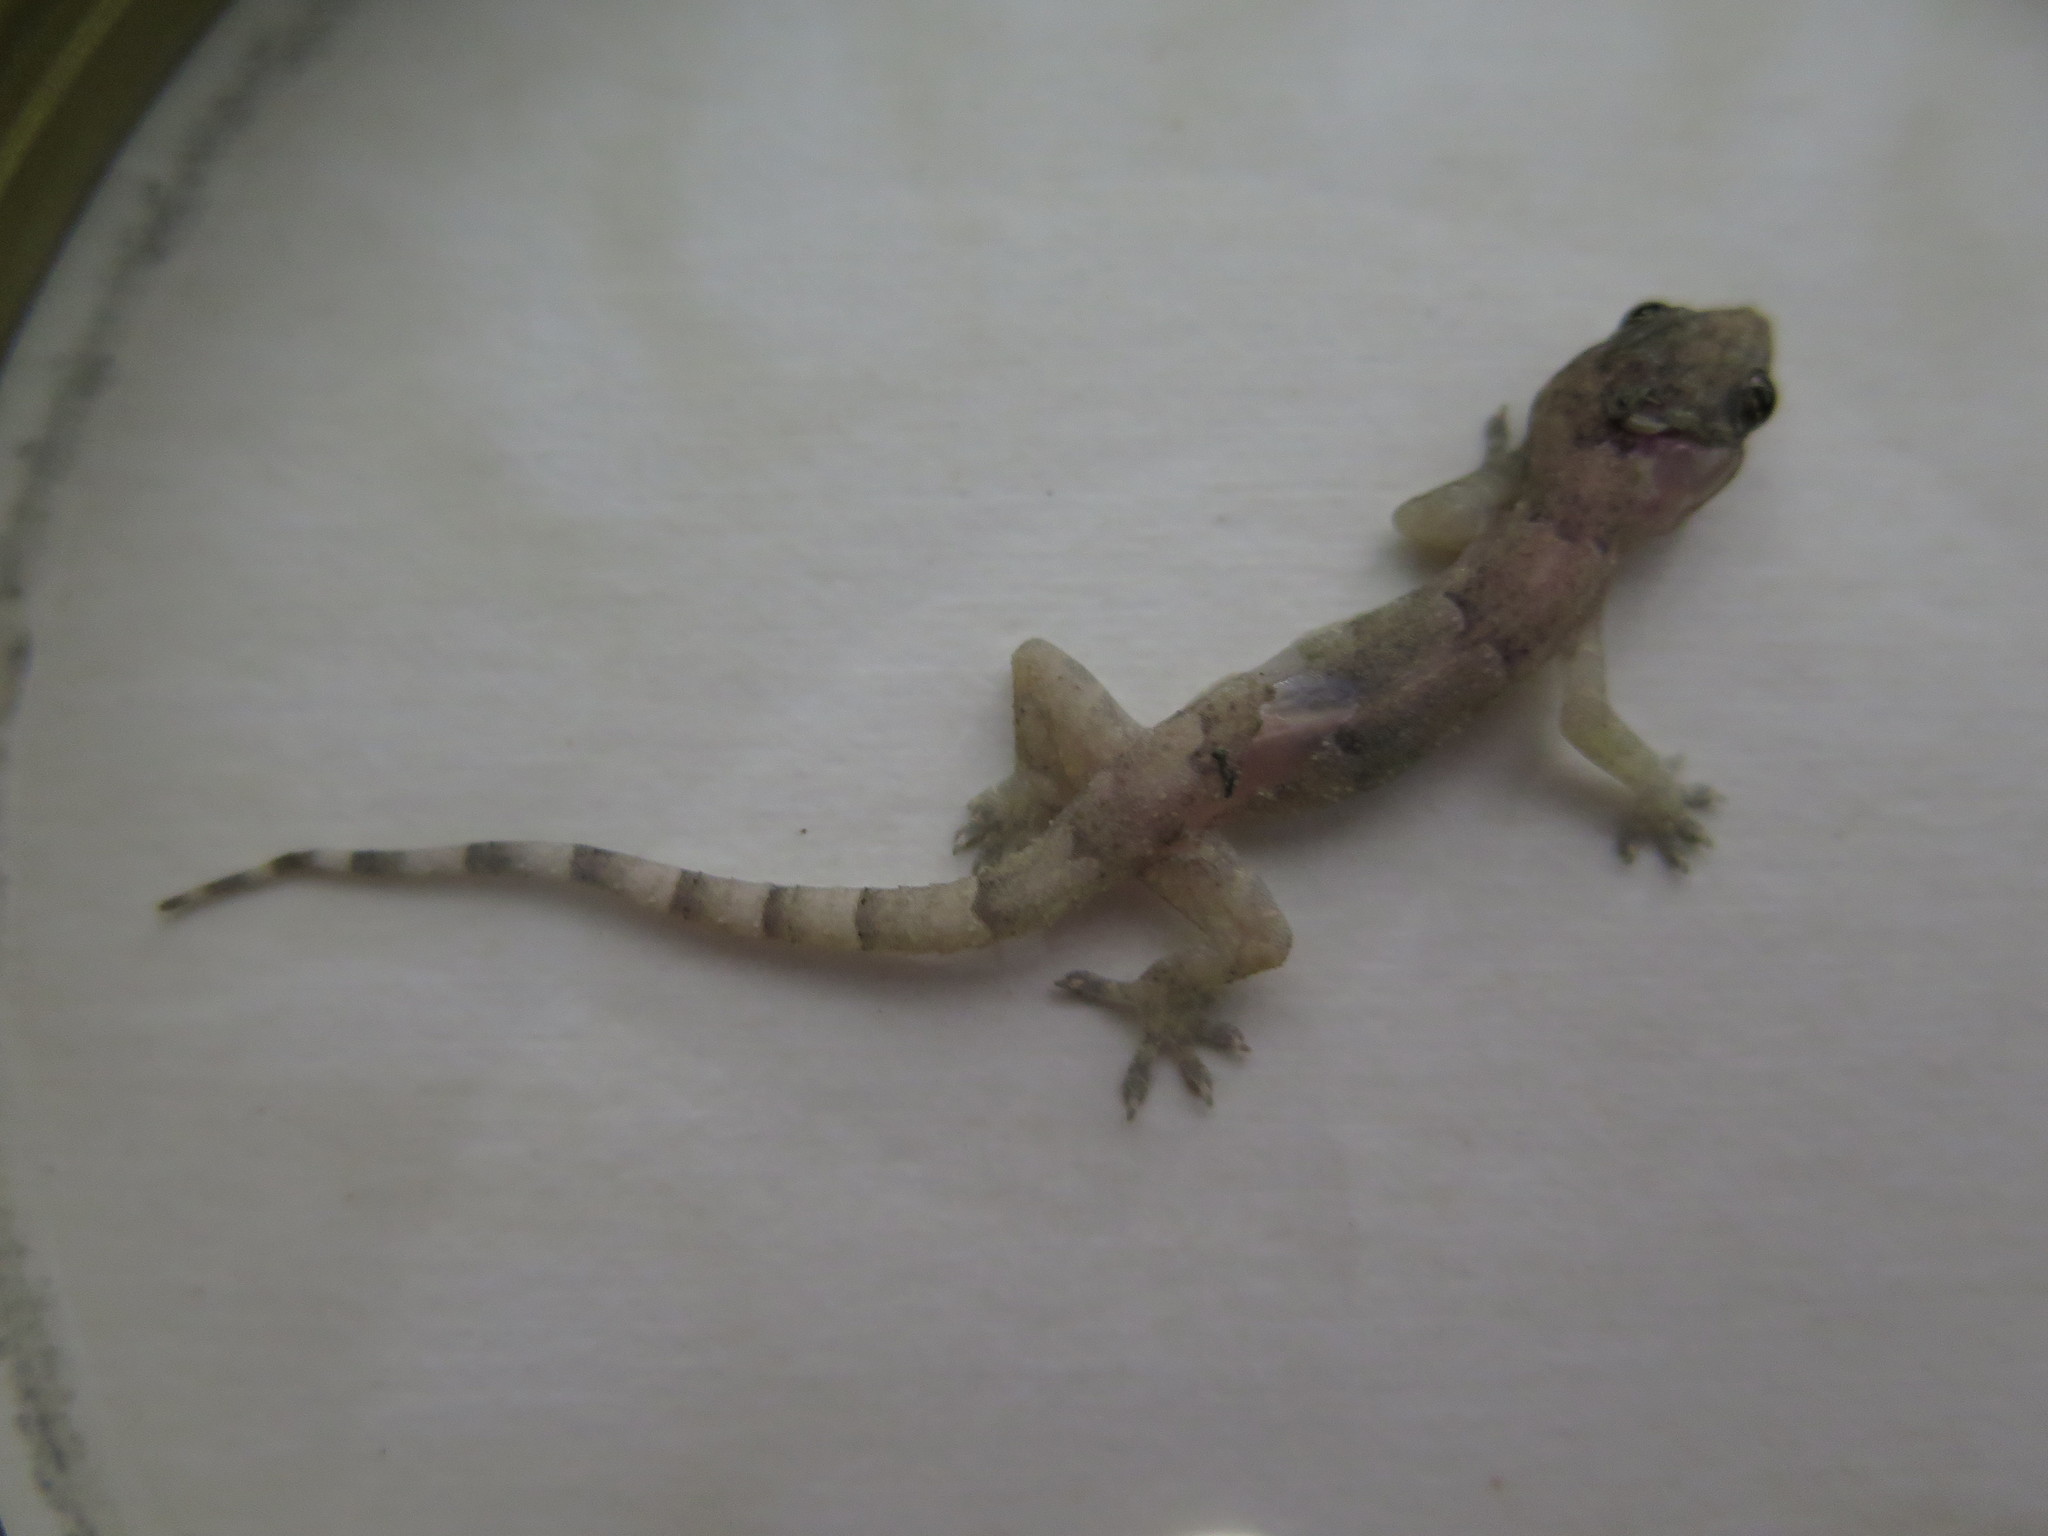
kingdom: Animalia
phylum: Chordata
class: Squamata
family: Gekkonidae
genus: Hemidactylus
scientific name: Hemidactylus mabouia
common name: House gecko
